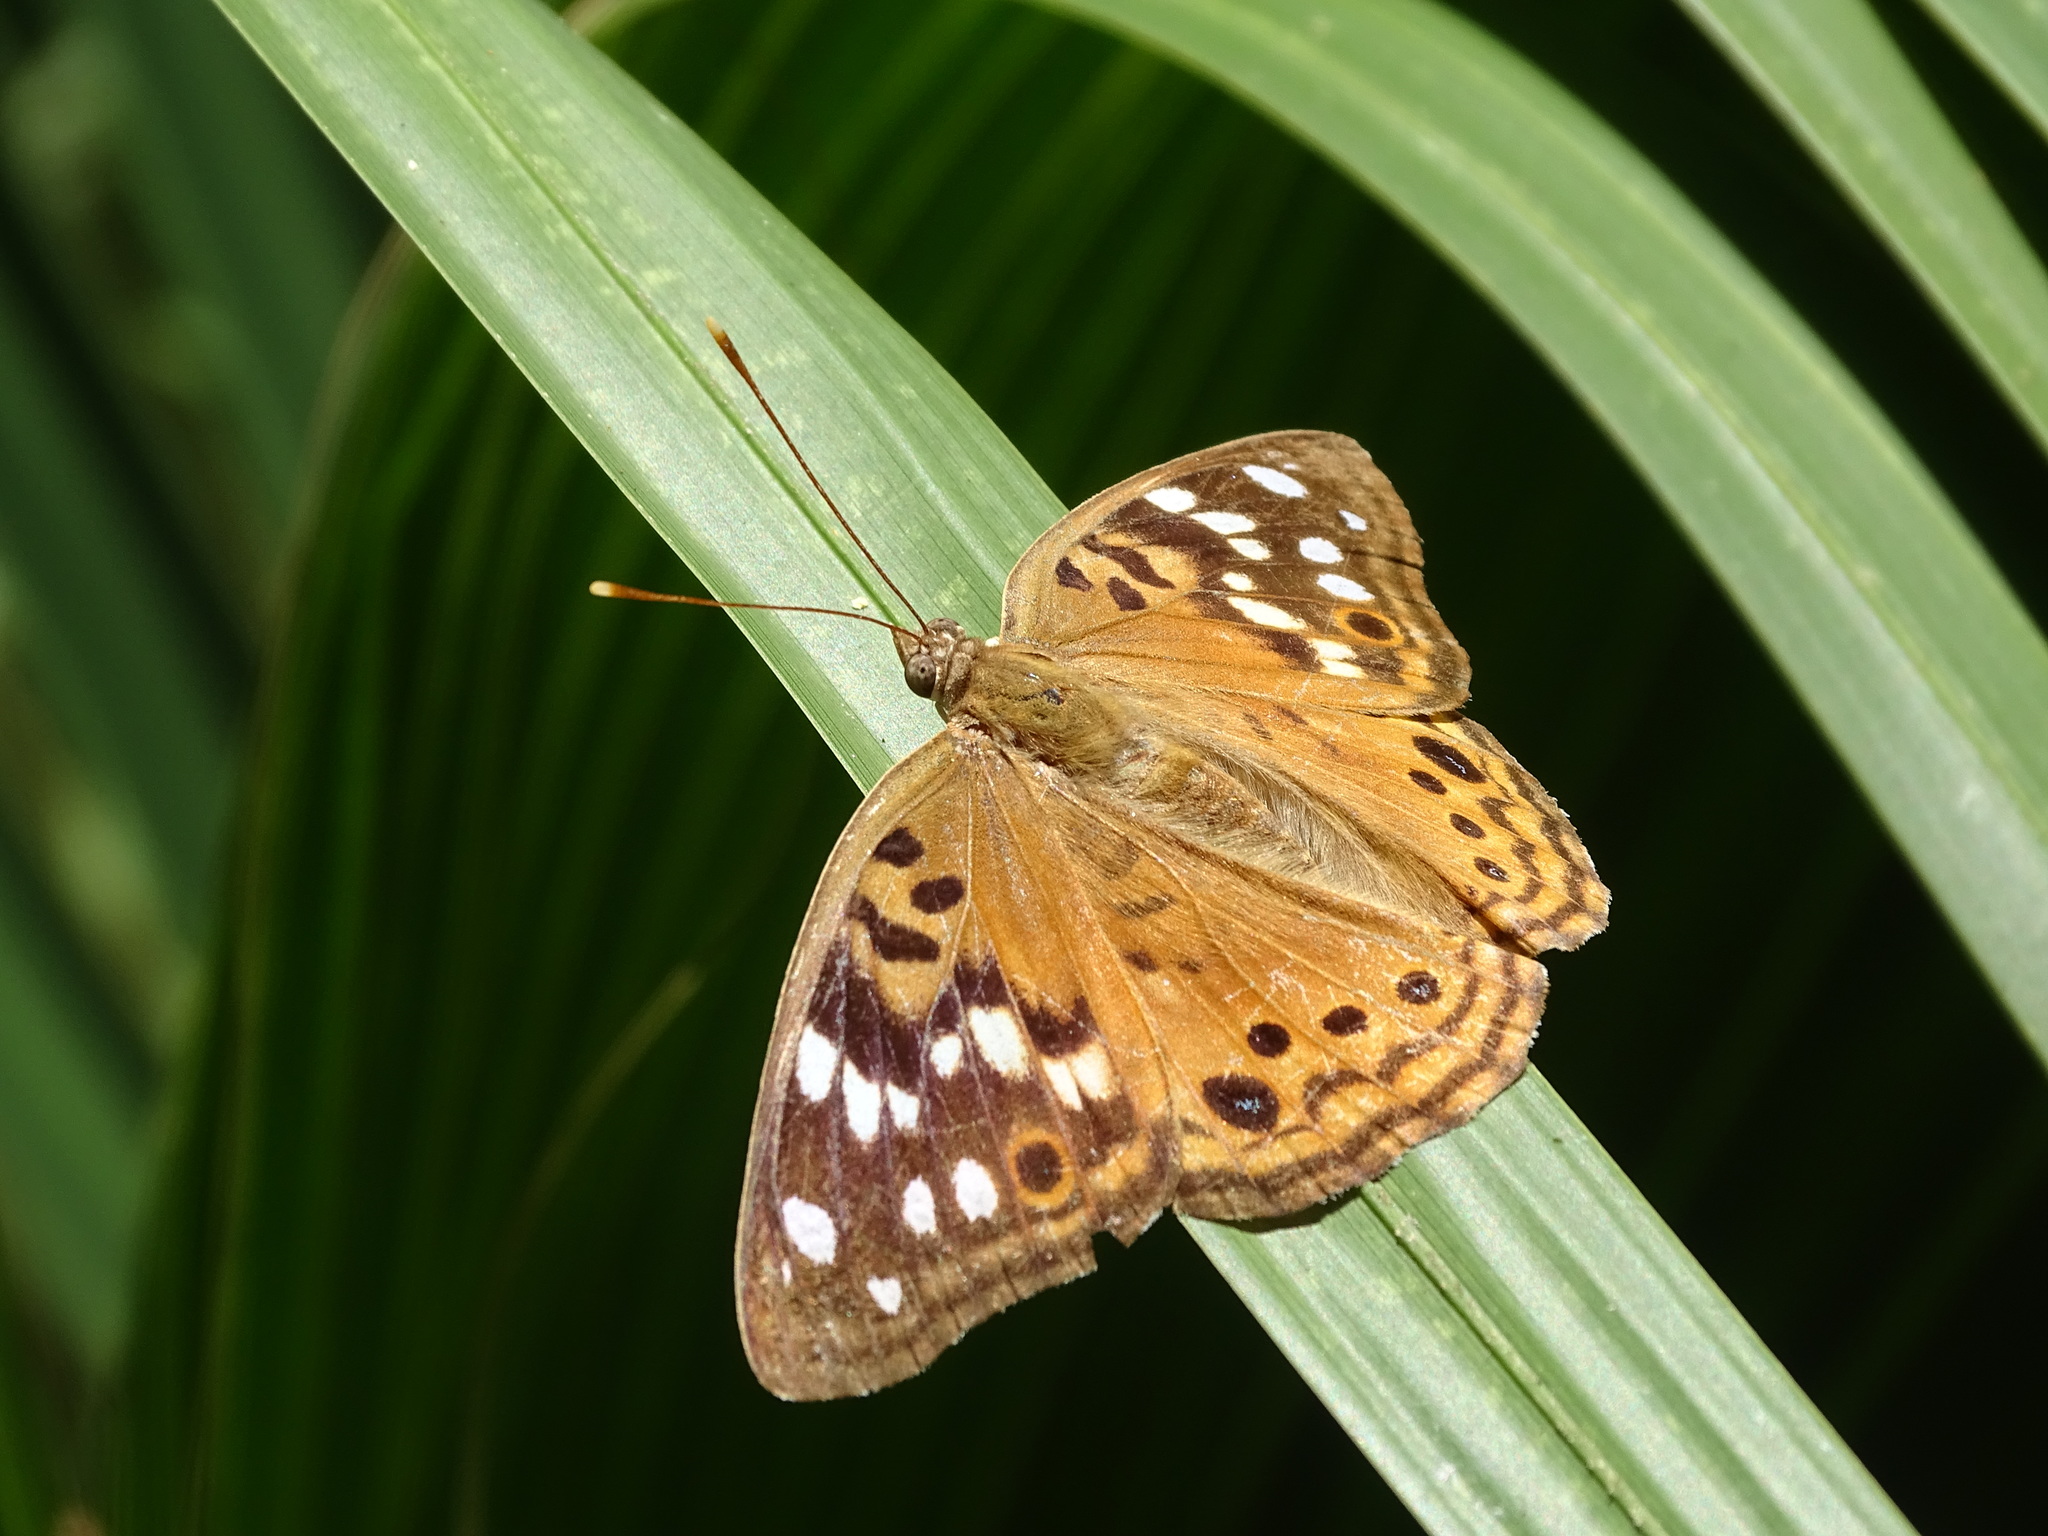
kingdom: Animalia
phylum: Arthropoda
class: Insecta
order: Lepidoptera
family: Nymphalidae
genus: Asterocampa
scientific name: Asterocampa celtis
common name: Hackberry emperor
